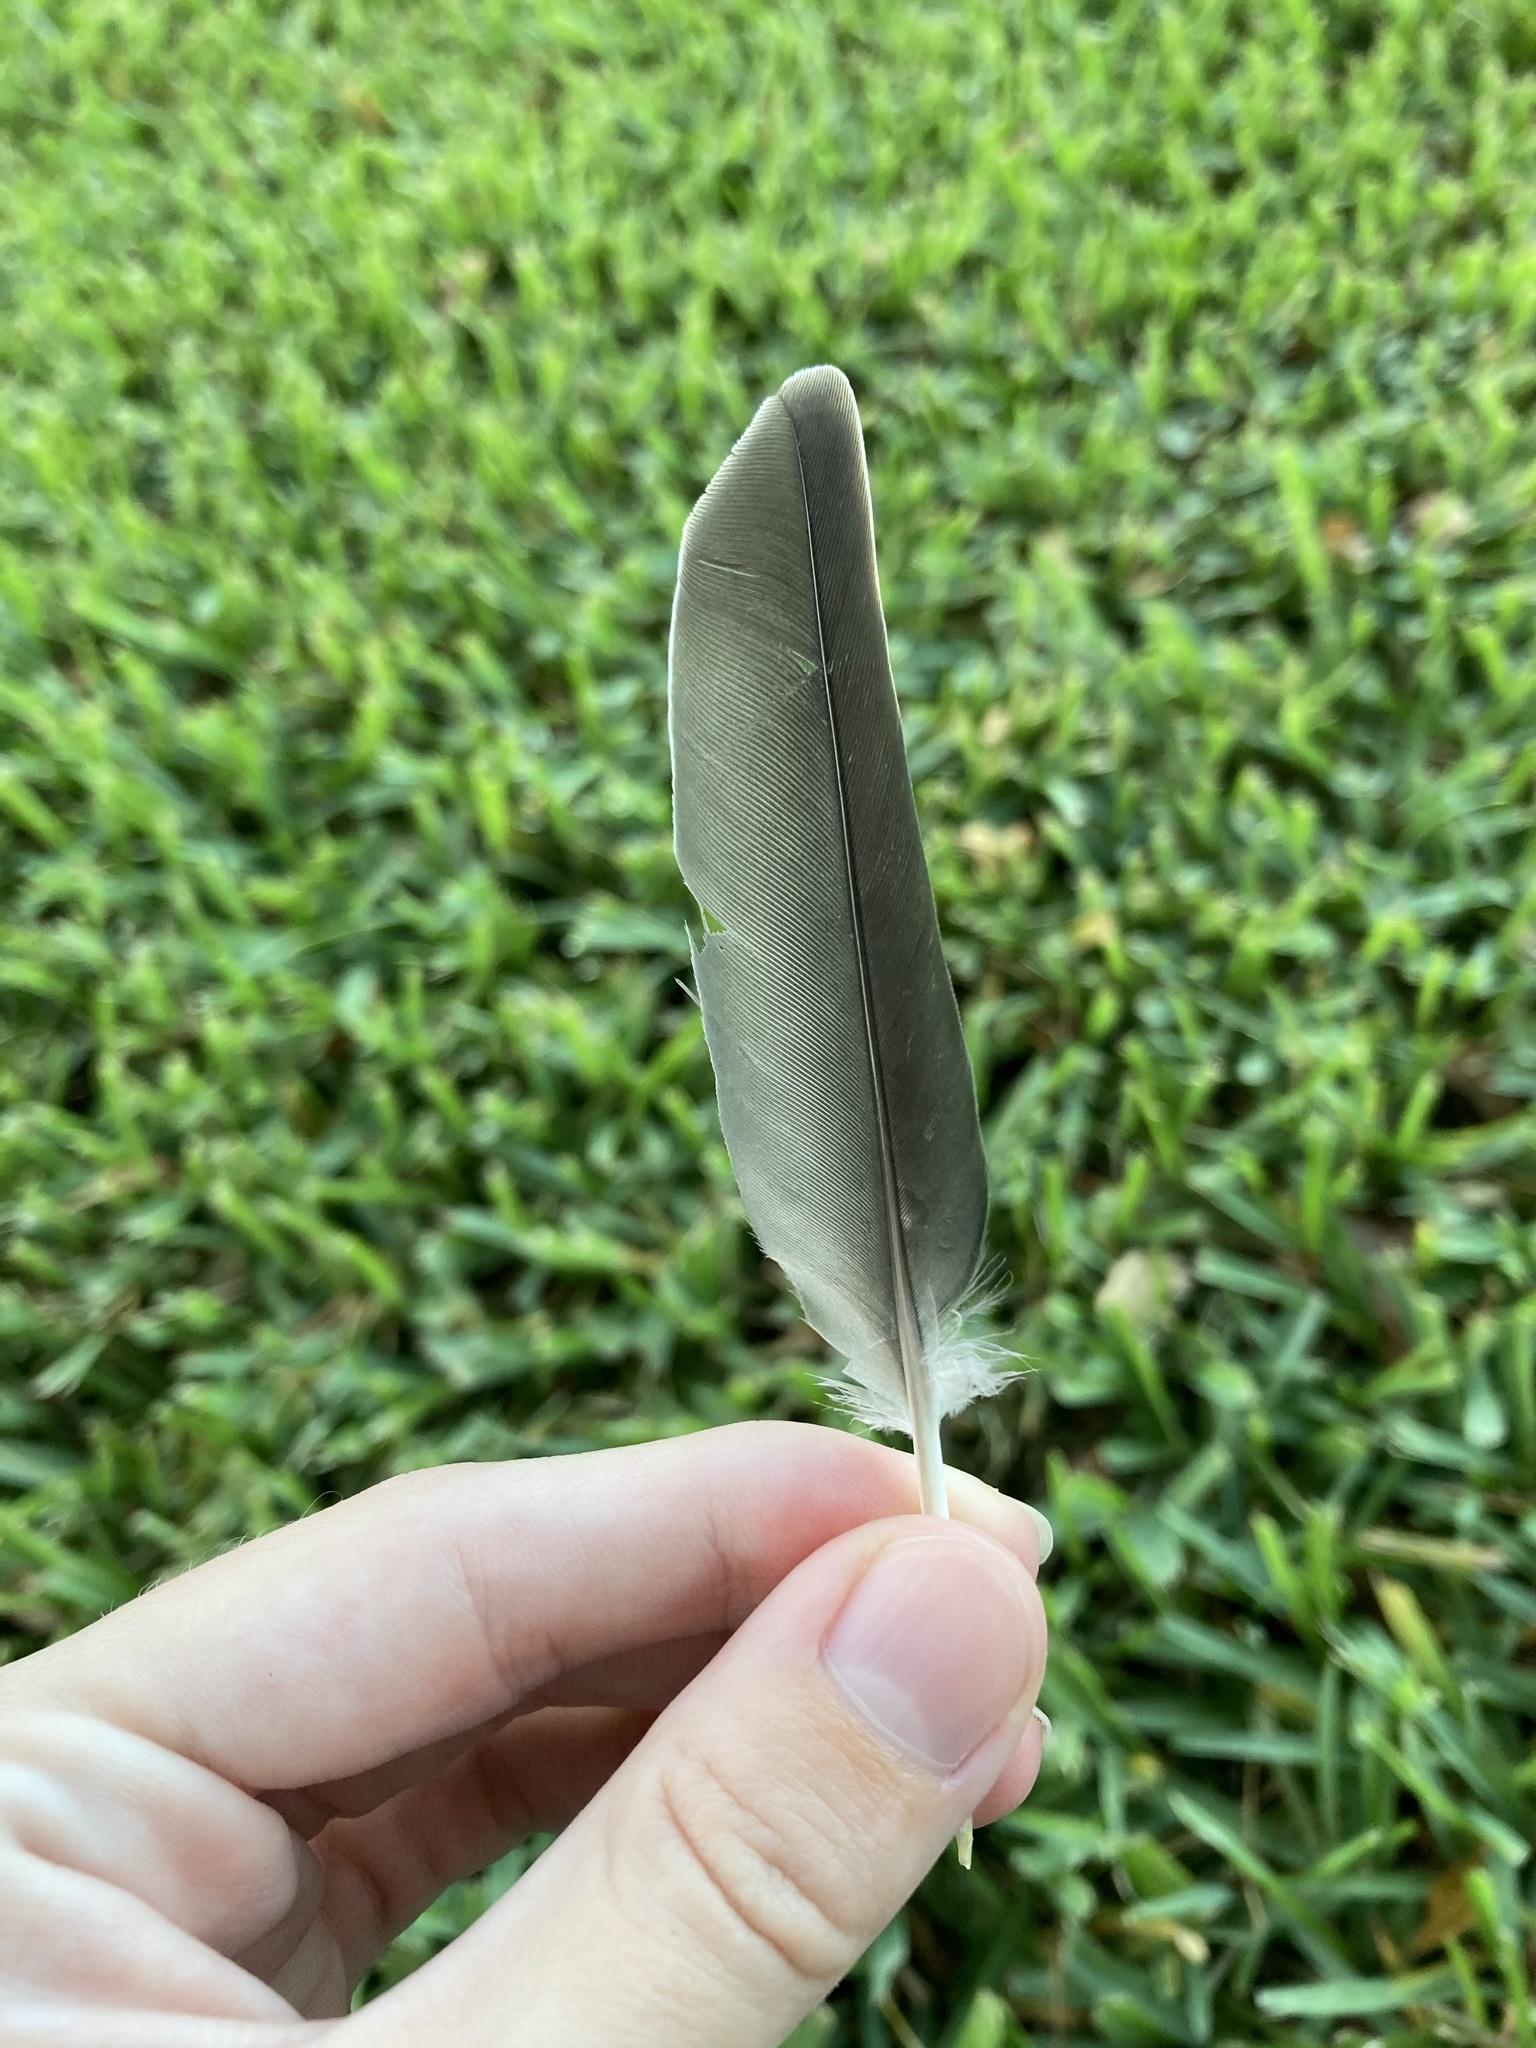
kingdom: Animalia
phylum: Chordata
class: Aves
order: Columbiformes
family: Columbidae
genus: Zenaida
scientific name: Zenaida asiatica
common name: White-winged dove
